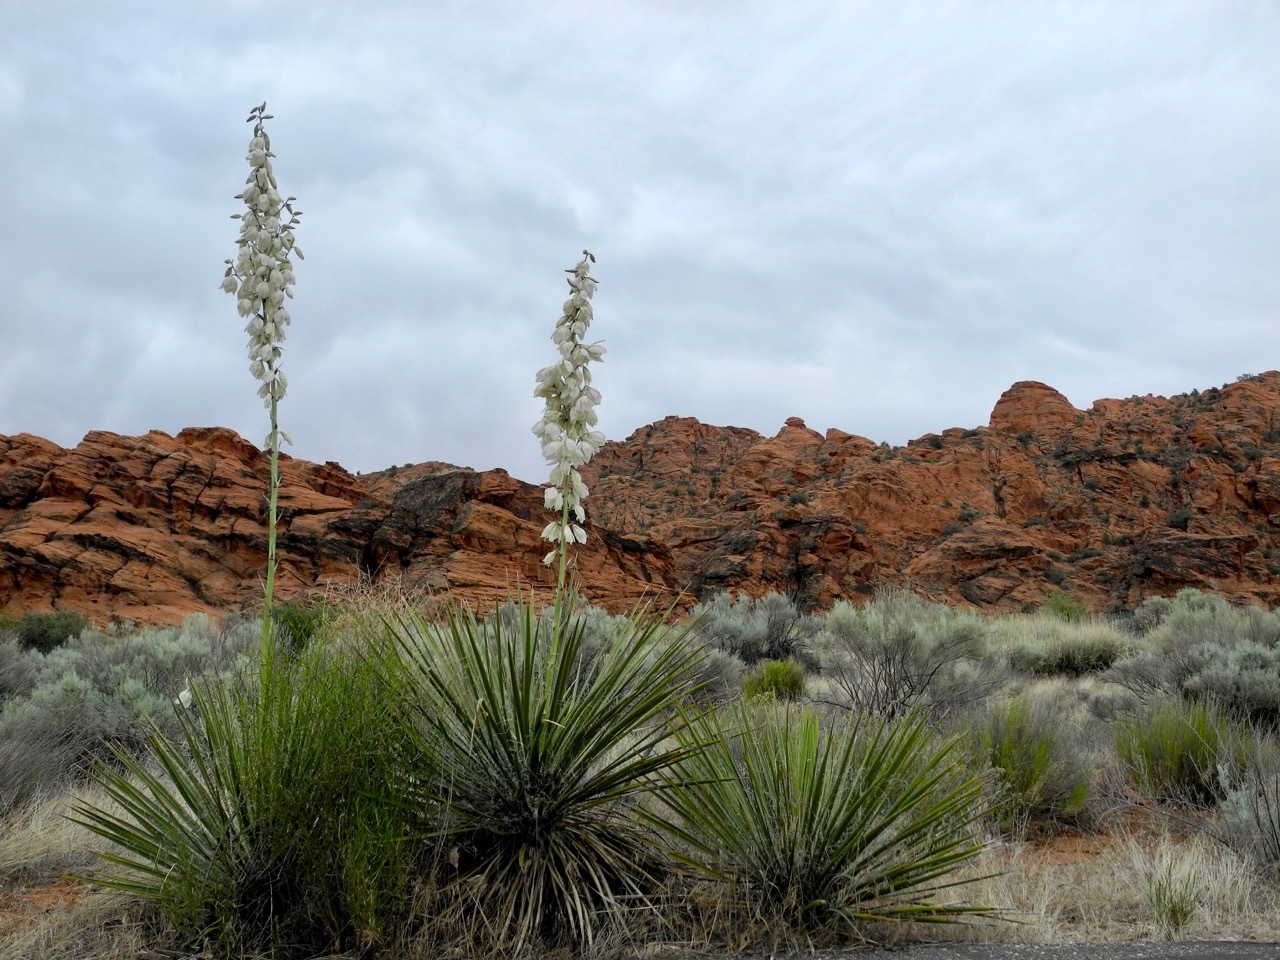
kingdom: Plantae
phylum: Tracheophyta
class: Liliopsida
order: Asparagales
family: Asparagaceae
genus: Yucca
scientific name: Yucca utahensis
